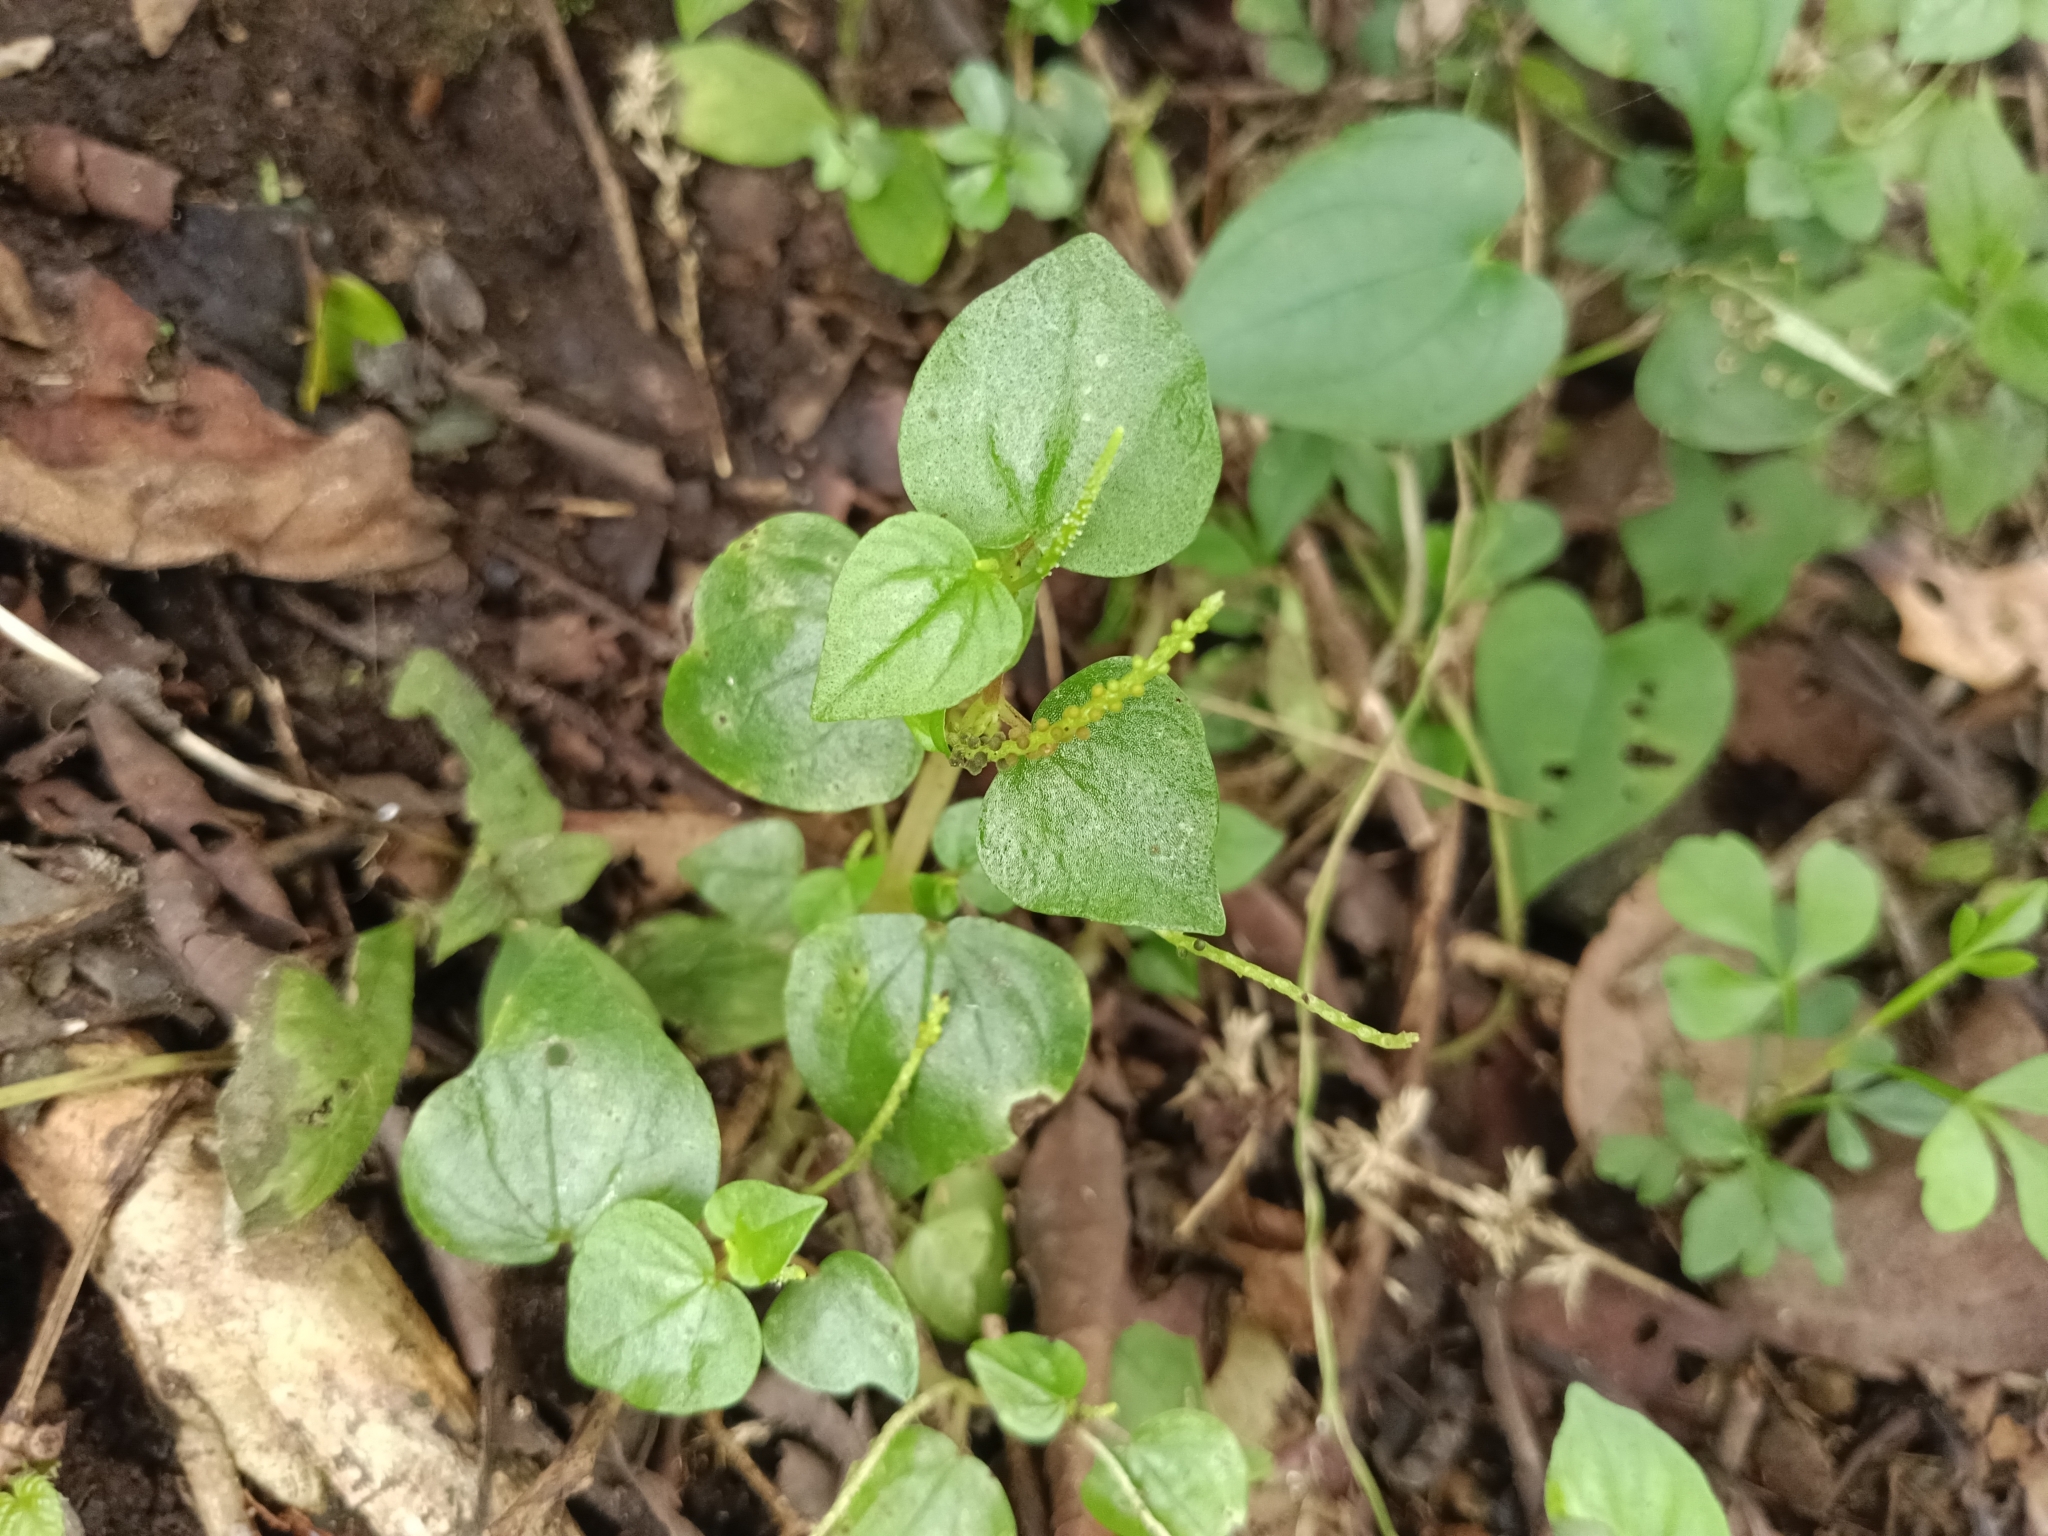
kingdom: Plantae
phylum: Tracheophyta
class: Magnoliopsida
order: Piperales
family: Piperaceae
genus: Peperomia
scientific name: Peperomia pellucida
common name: Man to man
